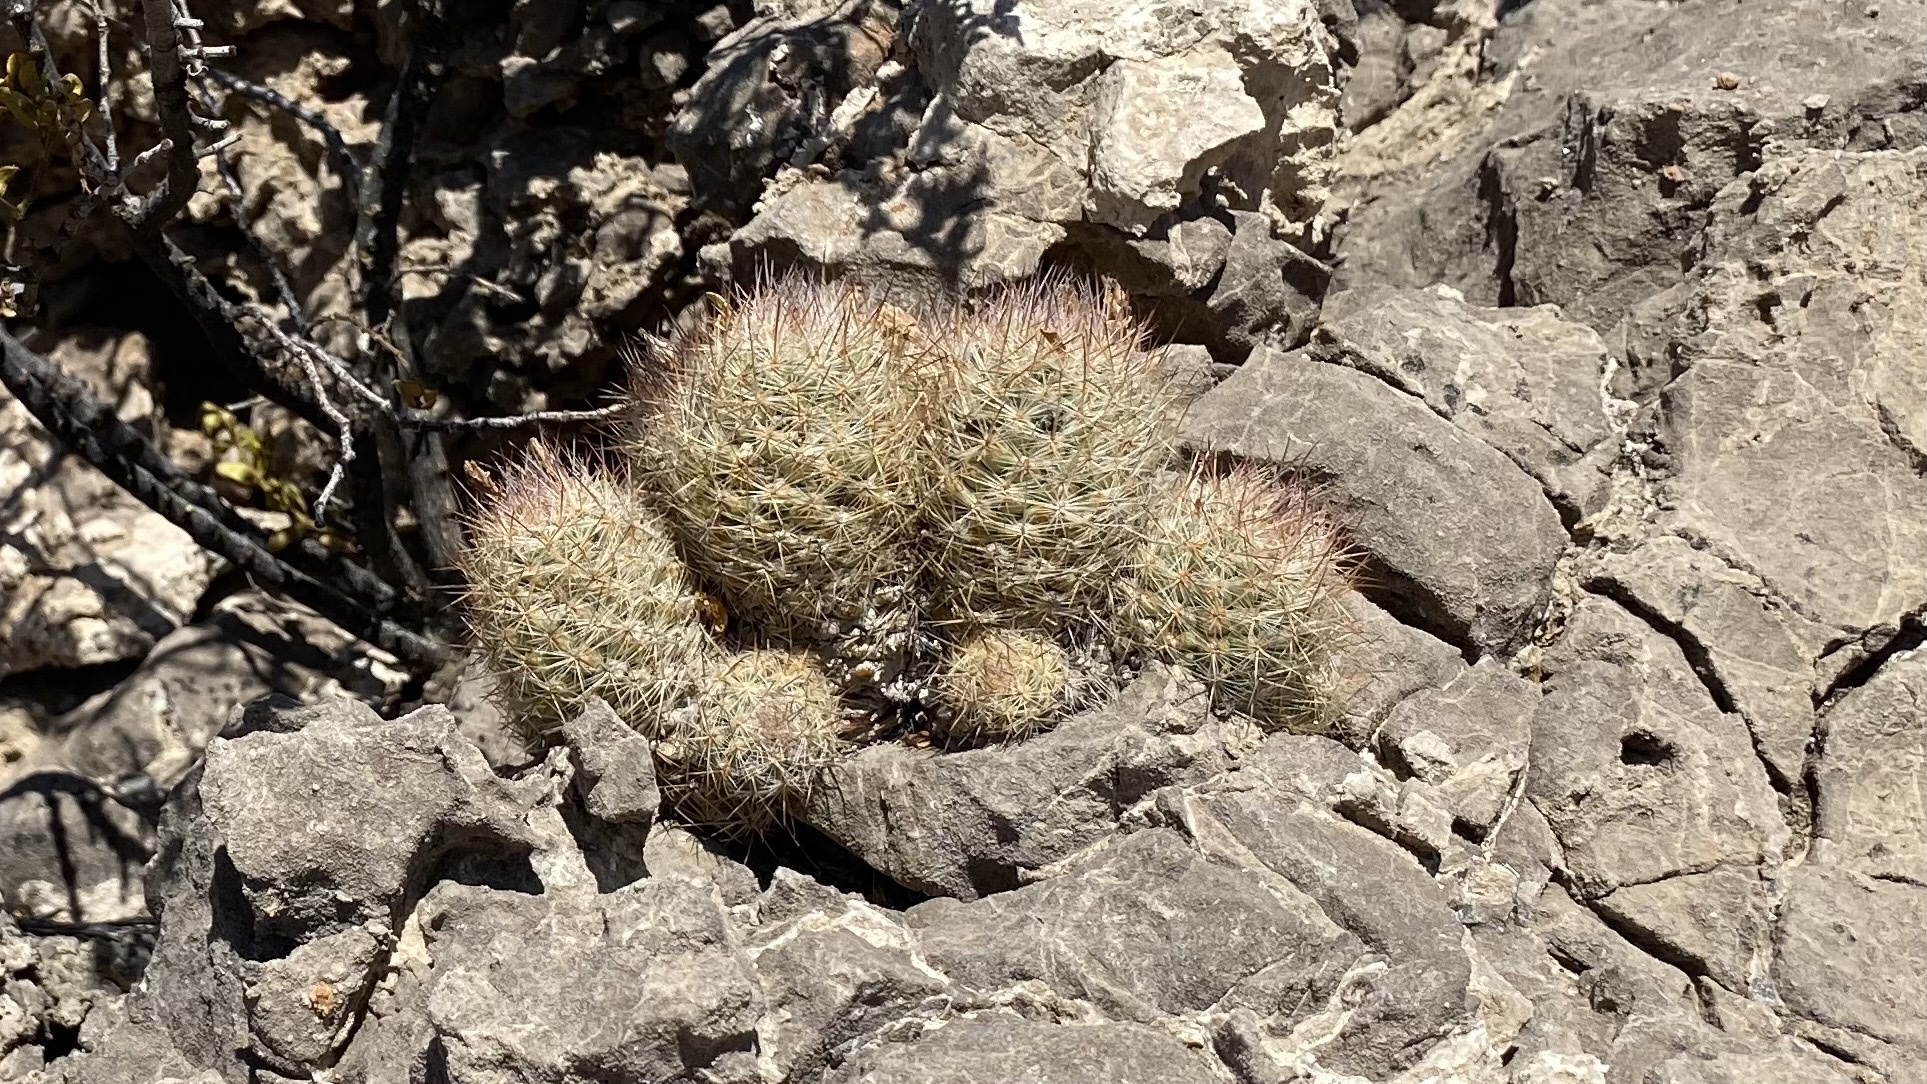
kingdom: Plantae
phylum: Tracheophyta
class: Magnoliopsida
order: Caryophyllales
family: Cactaceae
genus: Pelecyphora
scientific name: Pelecyphora tuberculosa
